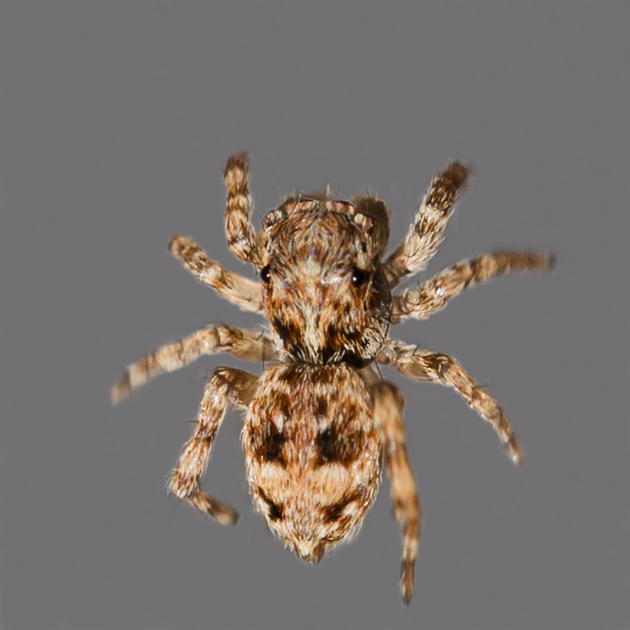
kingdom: Animalia
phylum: Arthropoda
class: Arachnida
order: Araneae
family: Salticidae
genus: Attulus
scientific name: Attulus fasciger
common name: Asiatic wall jumping spider
